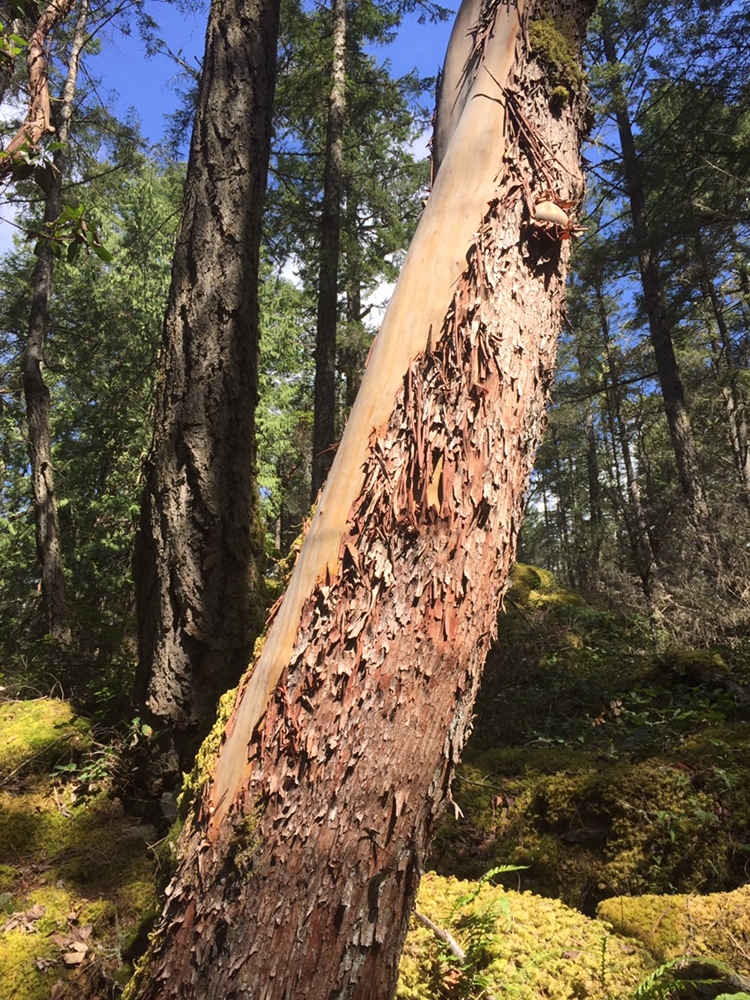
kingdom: Plantae
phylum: Tracheophyta
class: Magnoliopsida
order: Ericales
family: Ericaceae
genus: Arbutus
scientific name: Arbutus menziesii
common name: Pacific madrone
